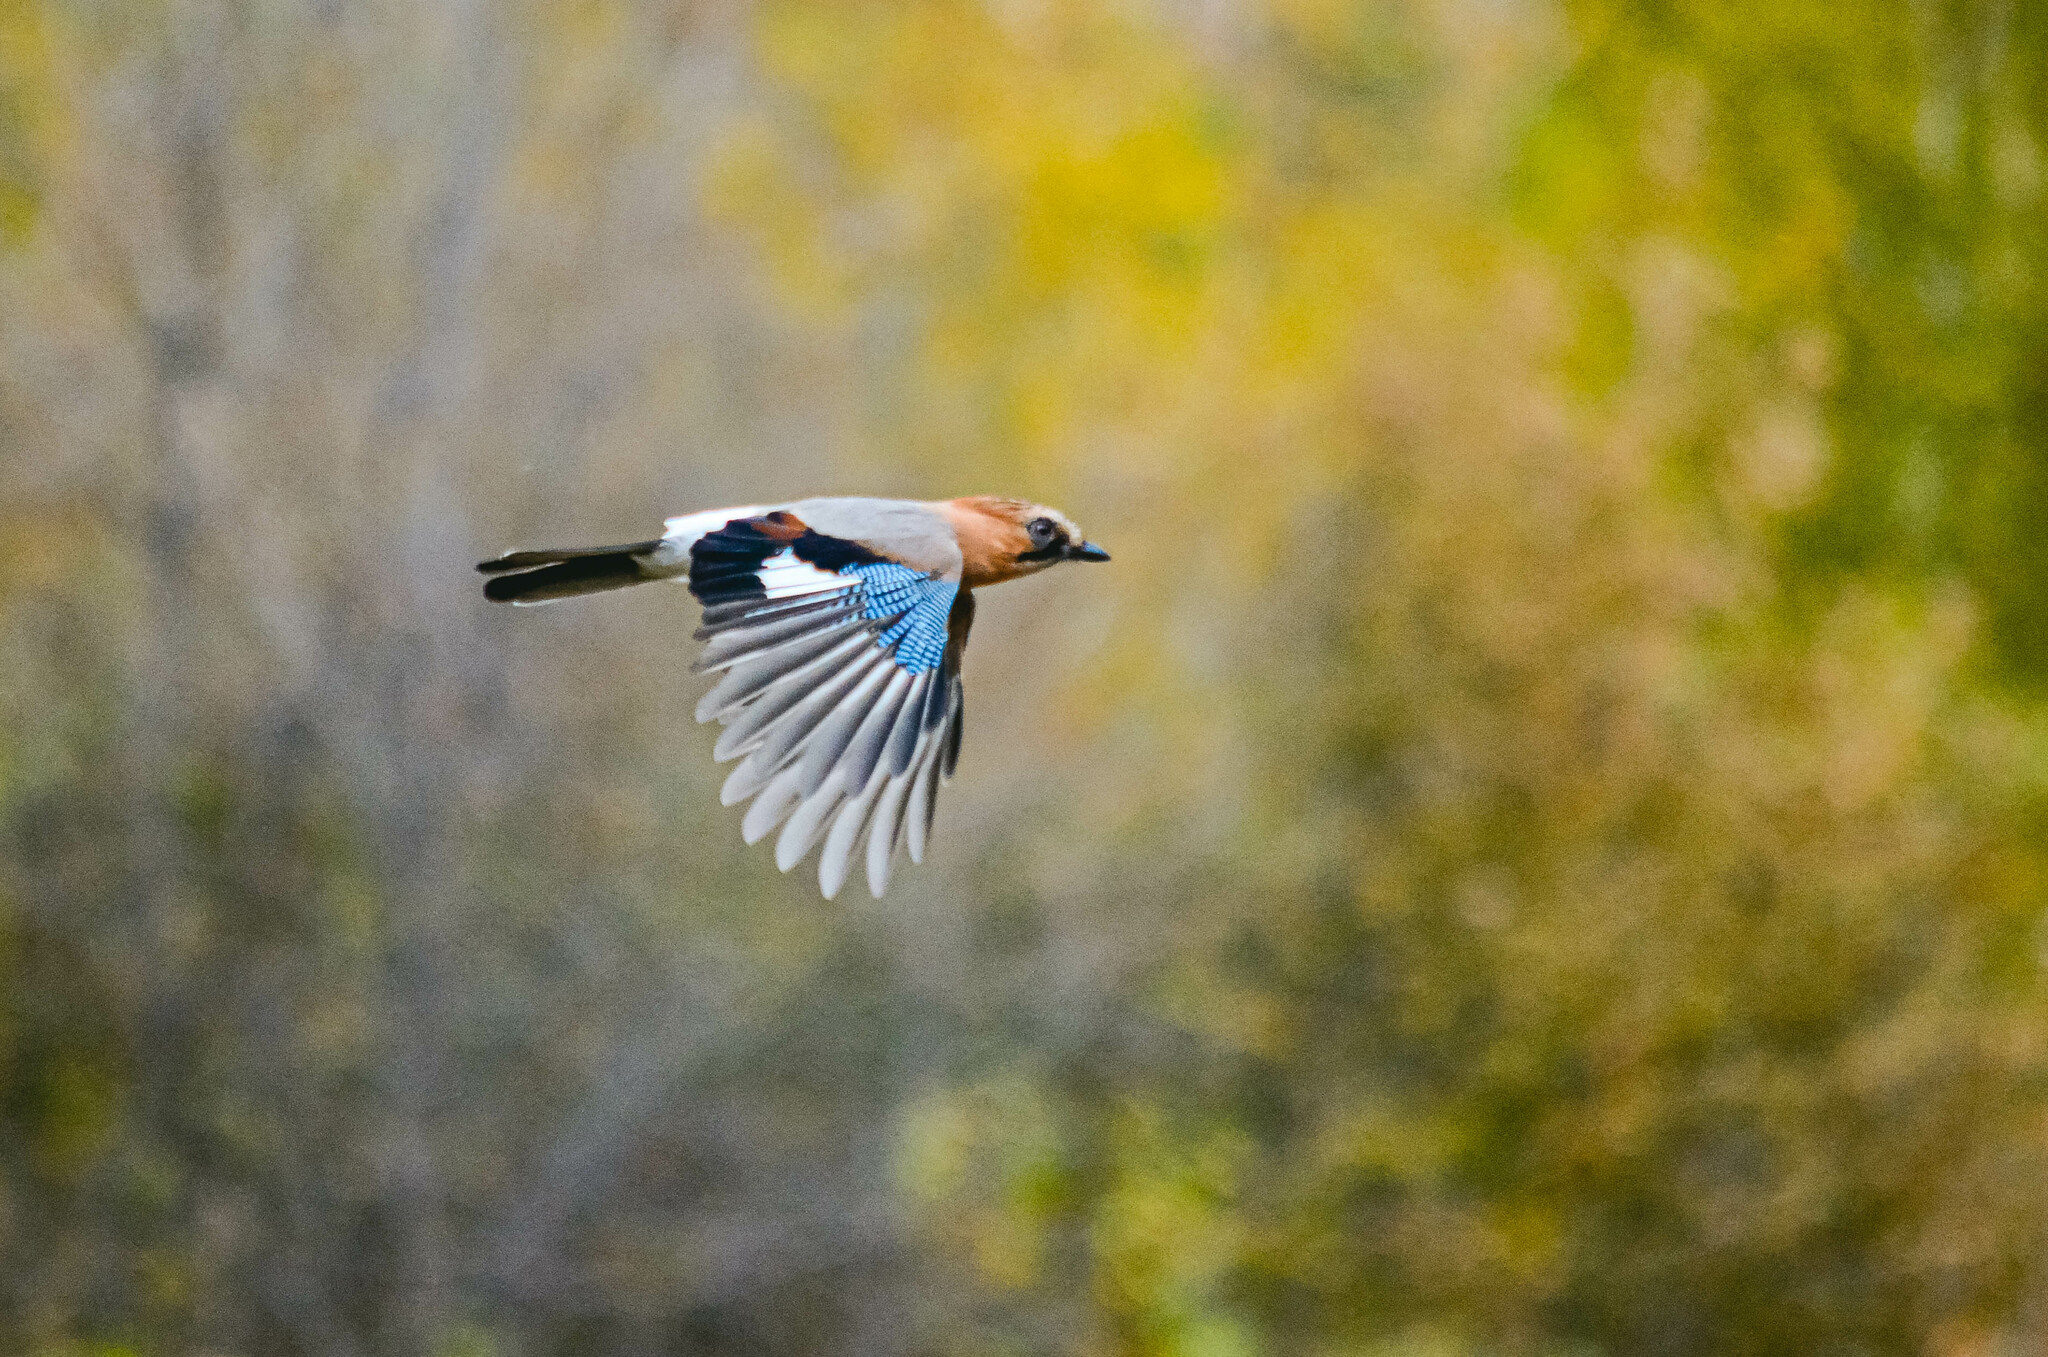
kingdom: Animalia
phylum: Chordata
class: Aves
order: Passeriformes
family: Corvidae
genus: Garrulus
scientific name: Garrulus glandarius
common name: Eurasian jay
